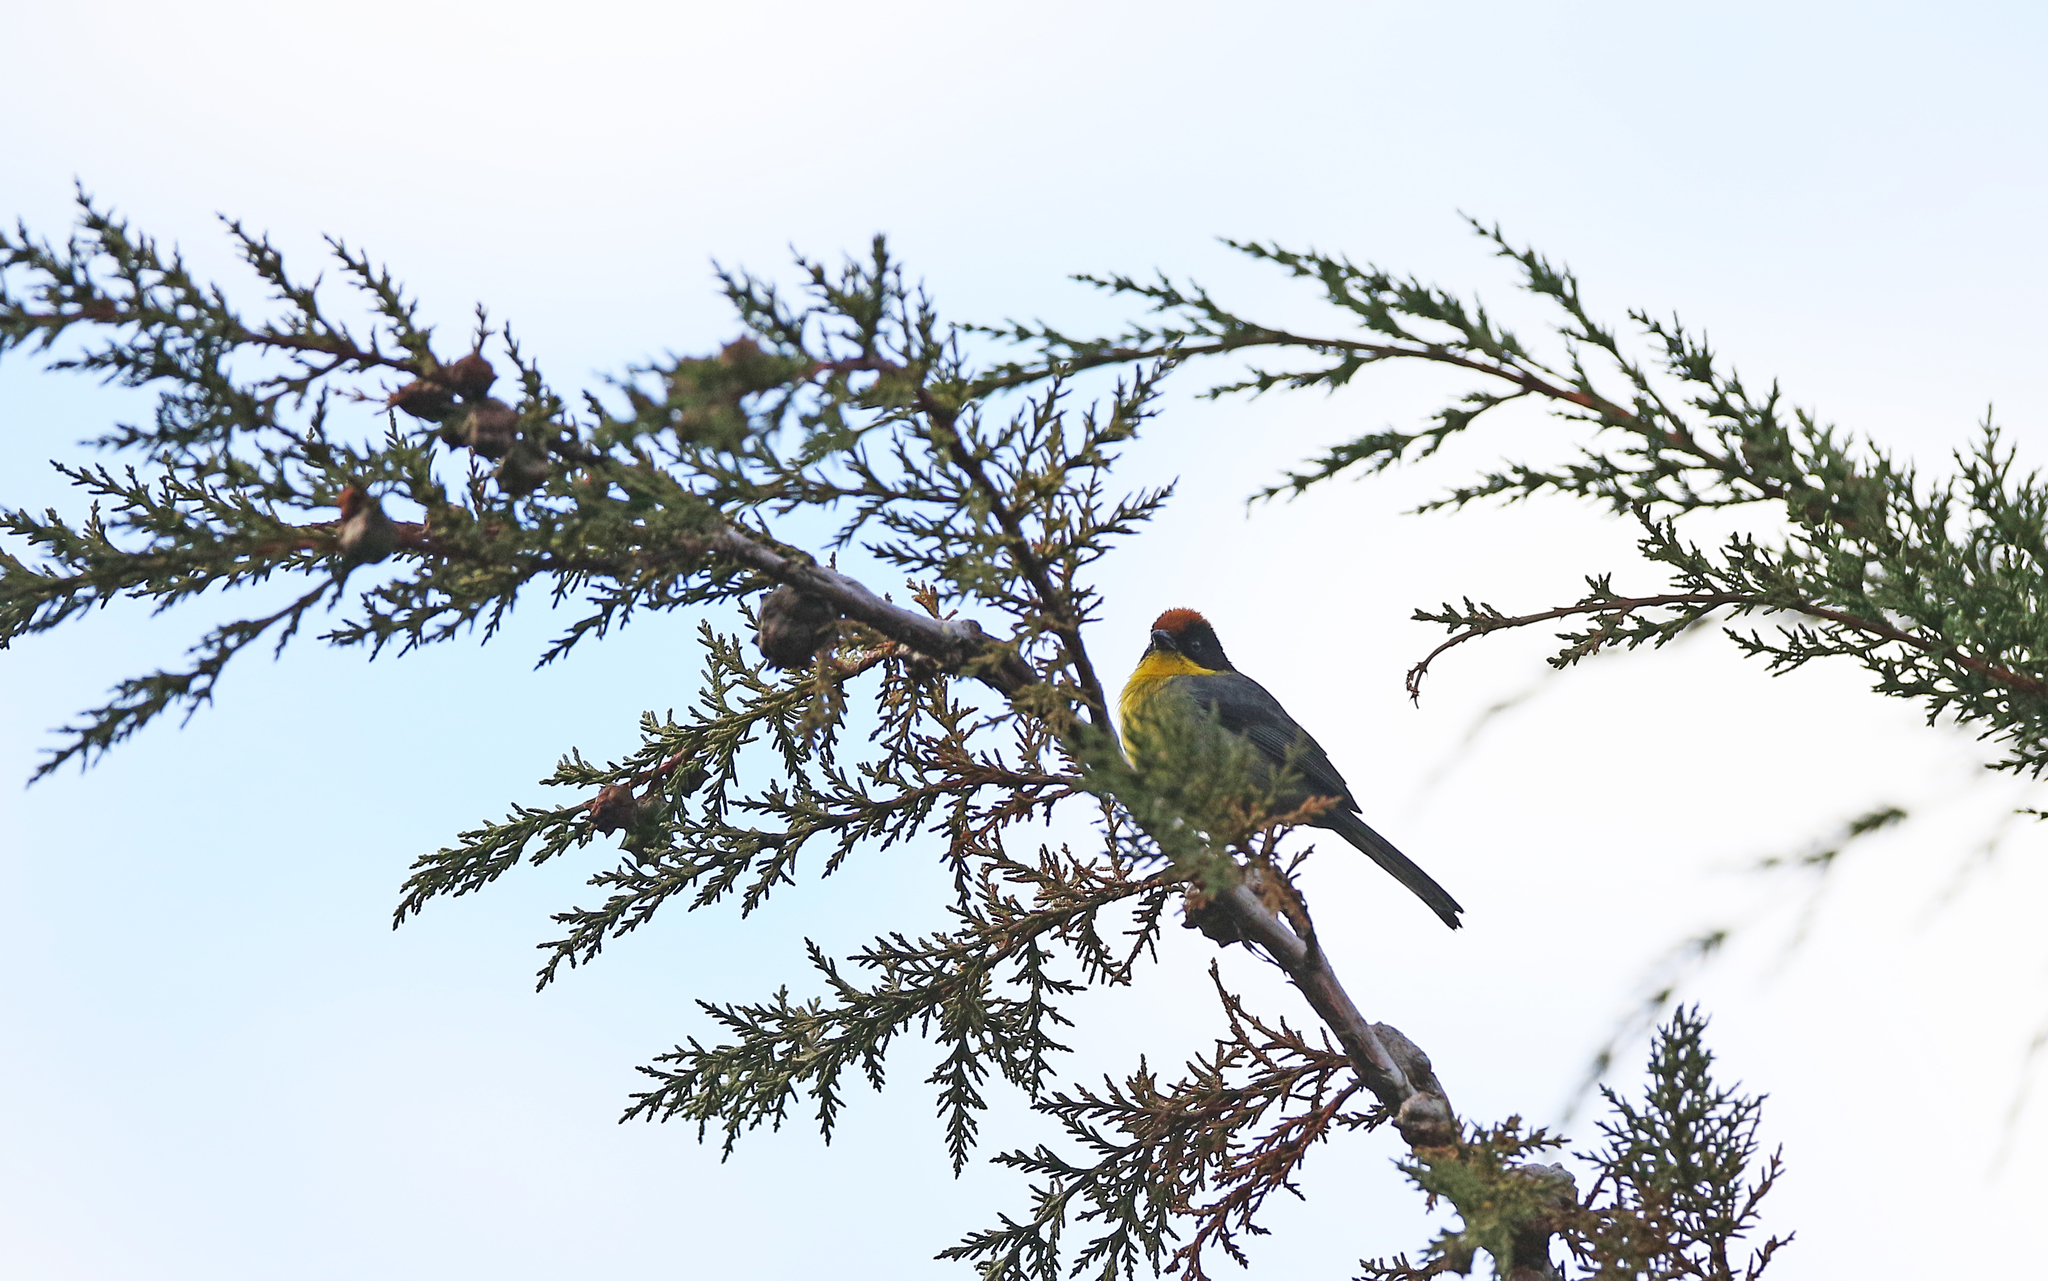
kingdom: Animalia
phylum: Chordata
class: Aves
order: Passeriformes
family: Passerellidae
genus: Atlapetes
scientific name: Atlapetes latinuchus
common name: Yellow-breasted brushfinch
